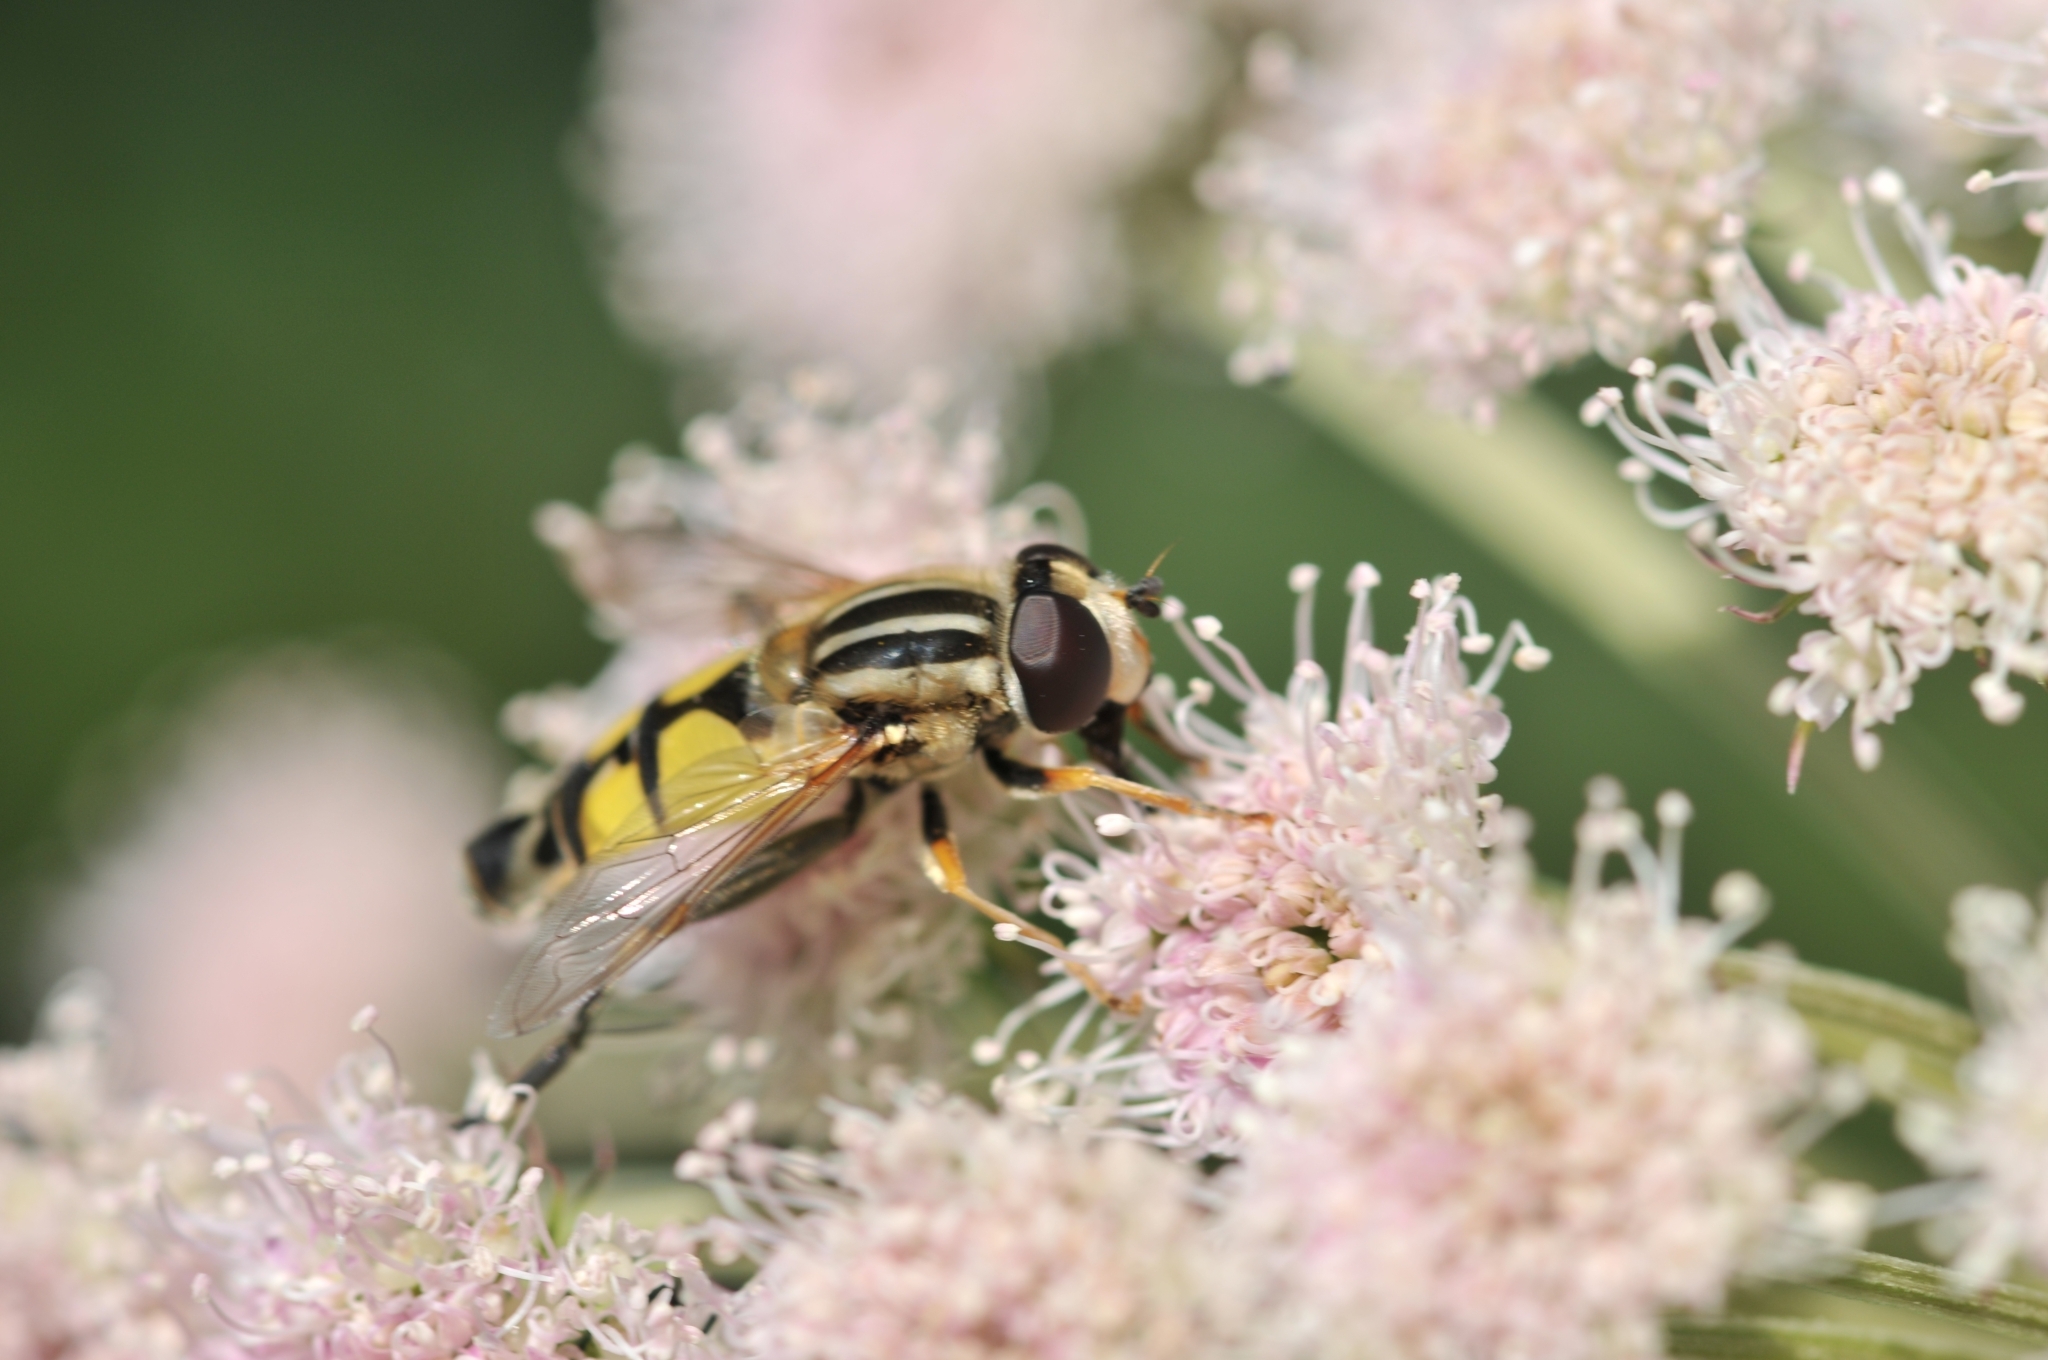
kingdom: Animalia
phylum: Arthropoda
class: Insecta
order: Diptera
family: Syrphidae
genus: Helophilus
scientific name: Helophilus trivittatus
